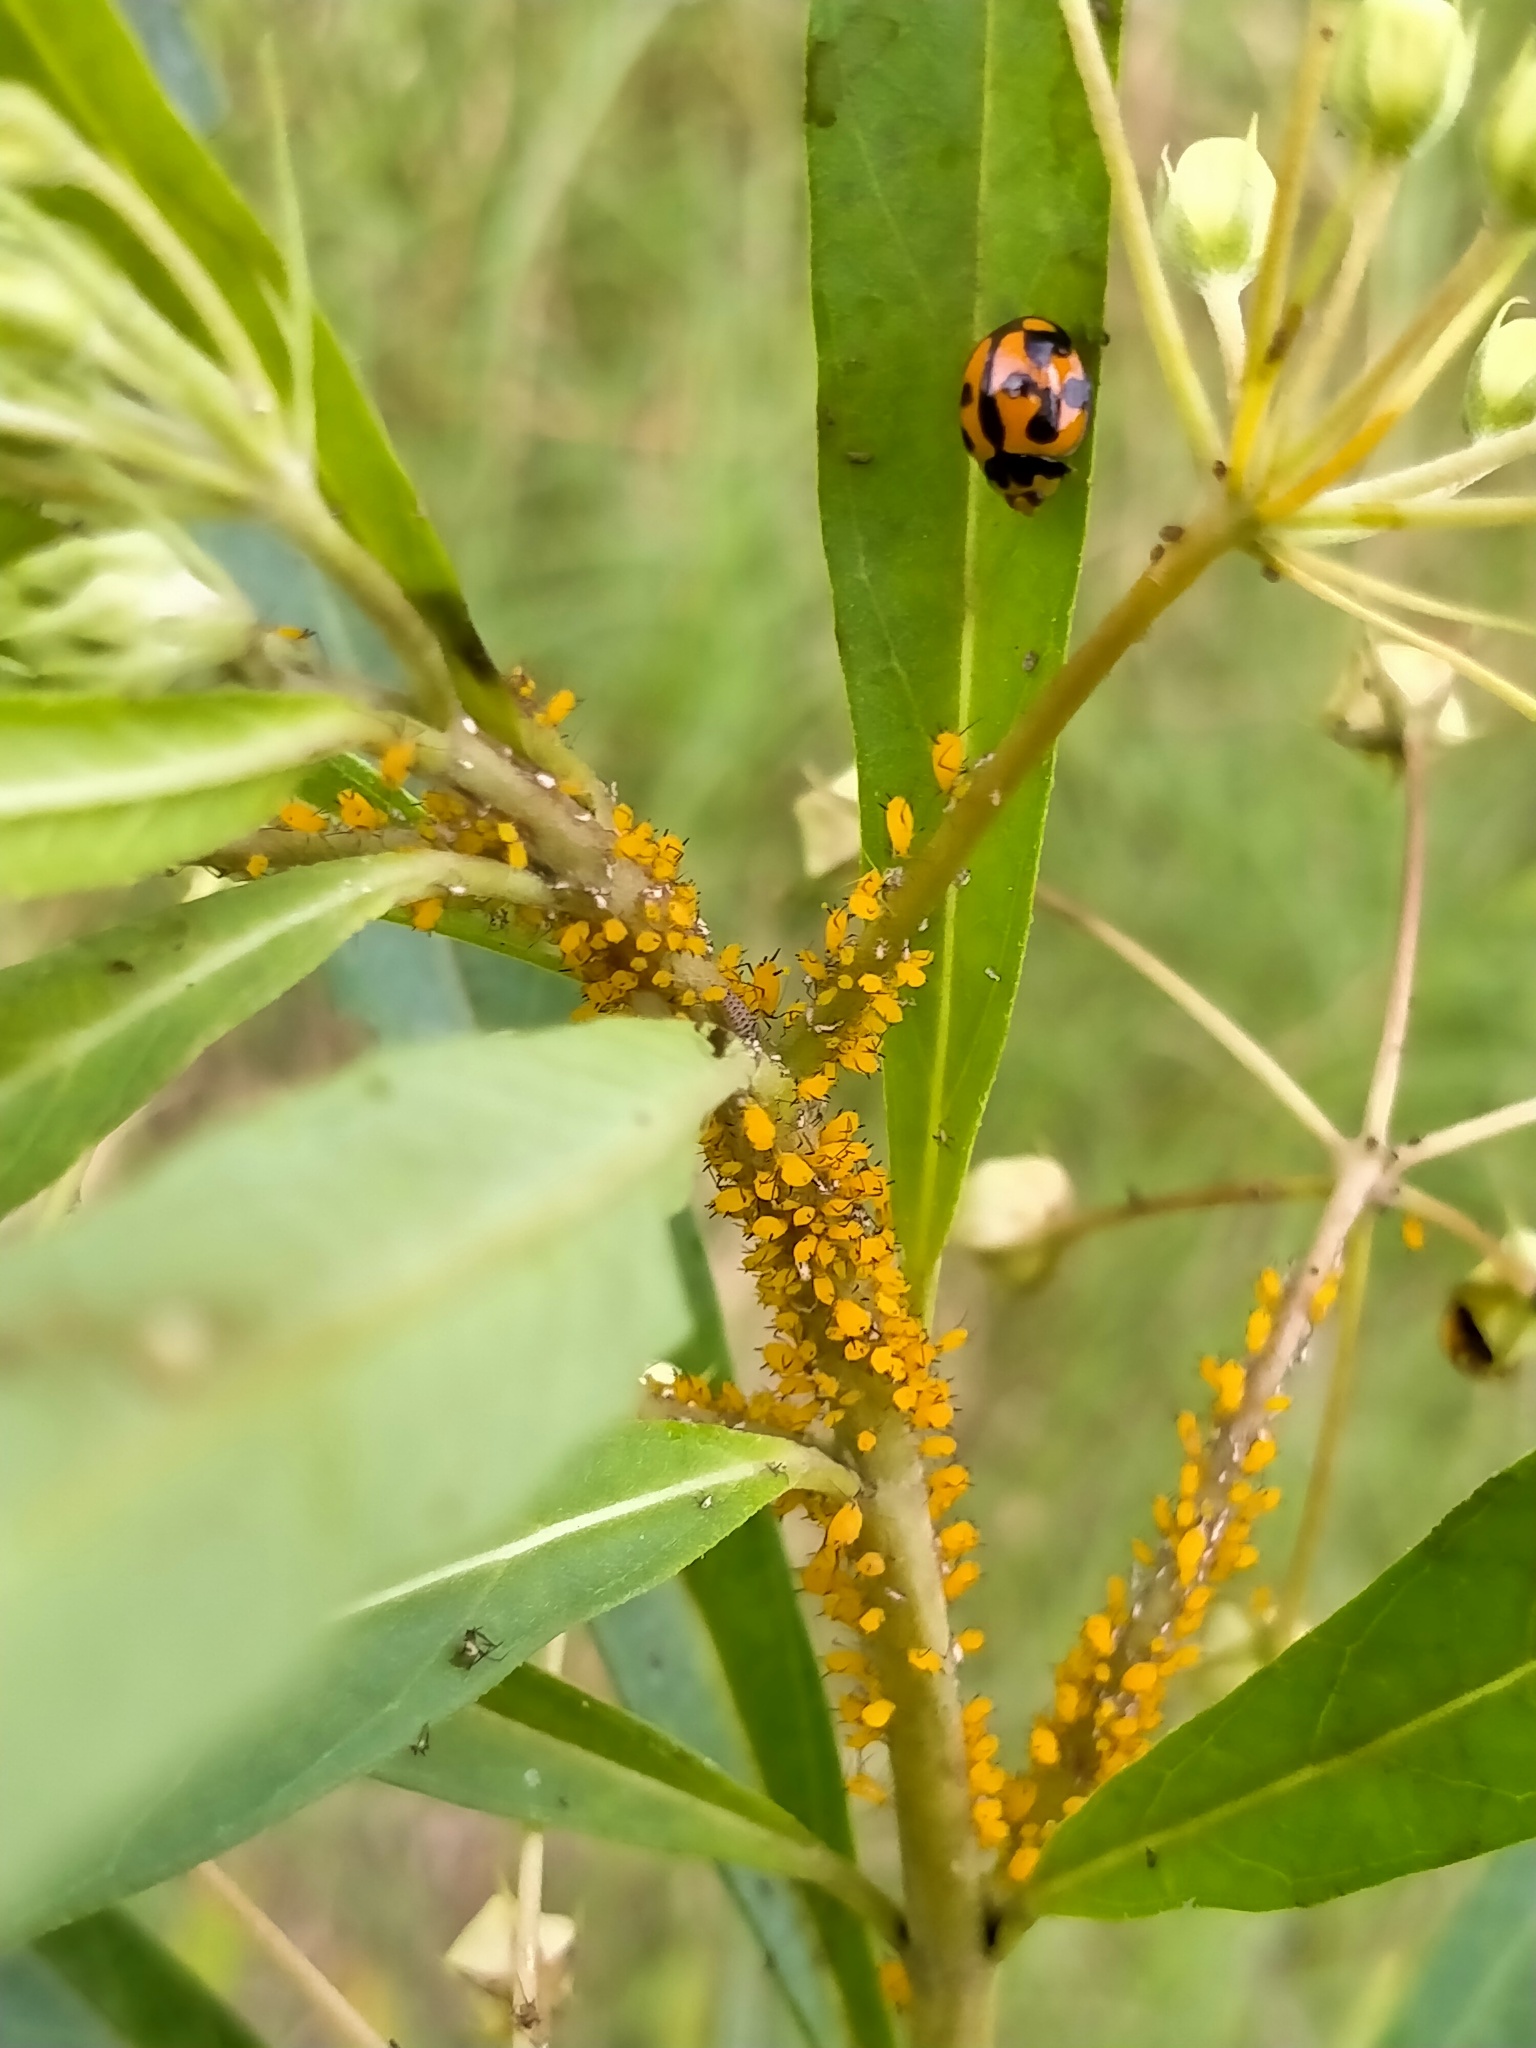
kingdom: Animalia
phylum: Arthropoda
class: Insecta
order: Coleoptera
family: Coccinellidae
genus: Coelophora
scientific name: Coelophora inaequalis
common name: Common australian lady beetle
